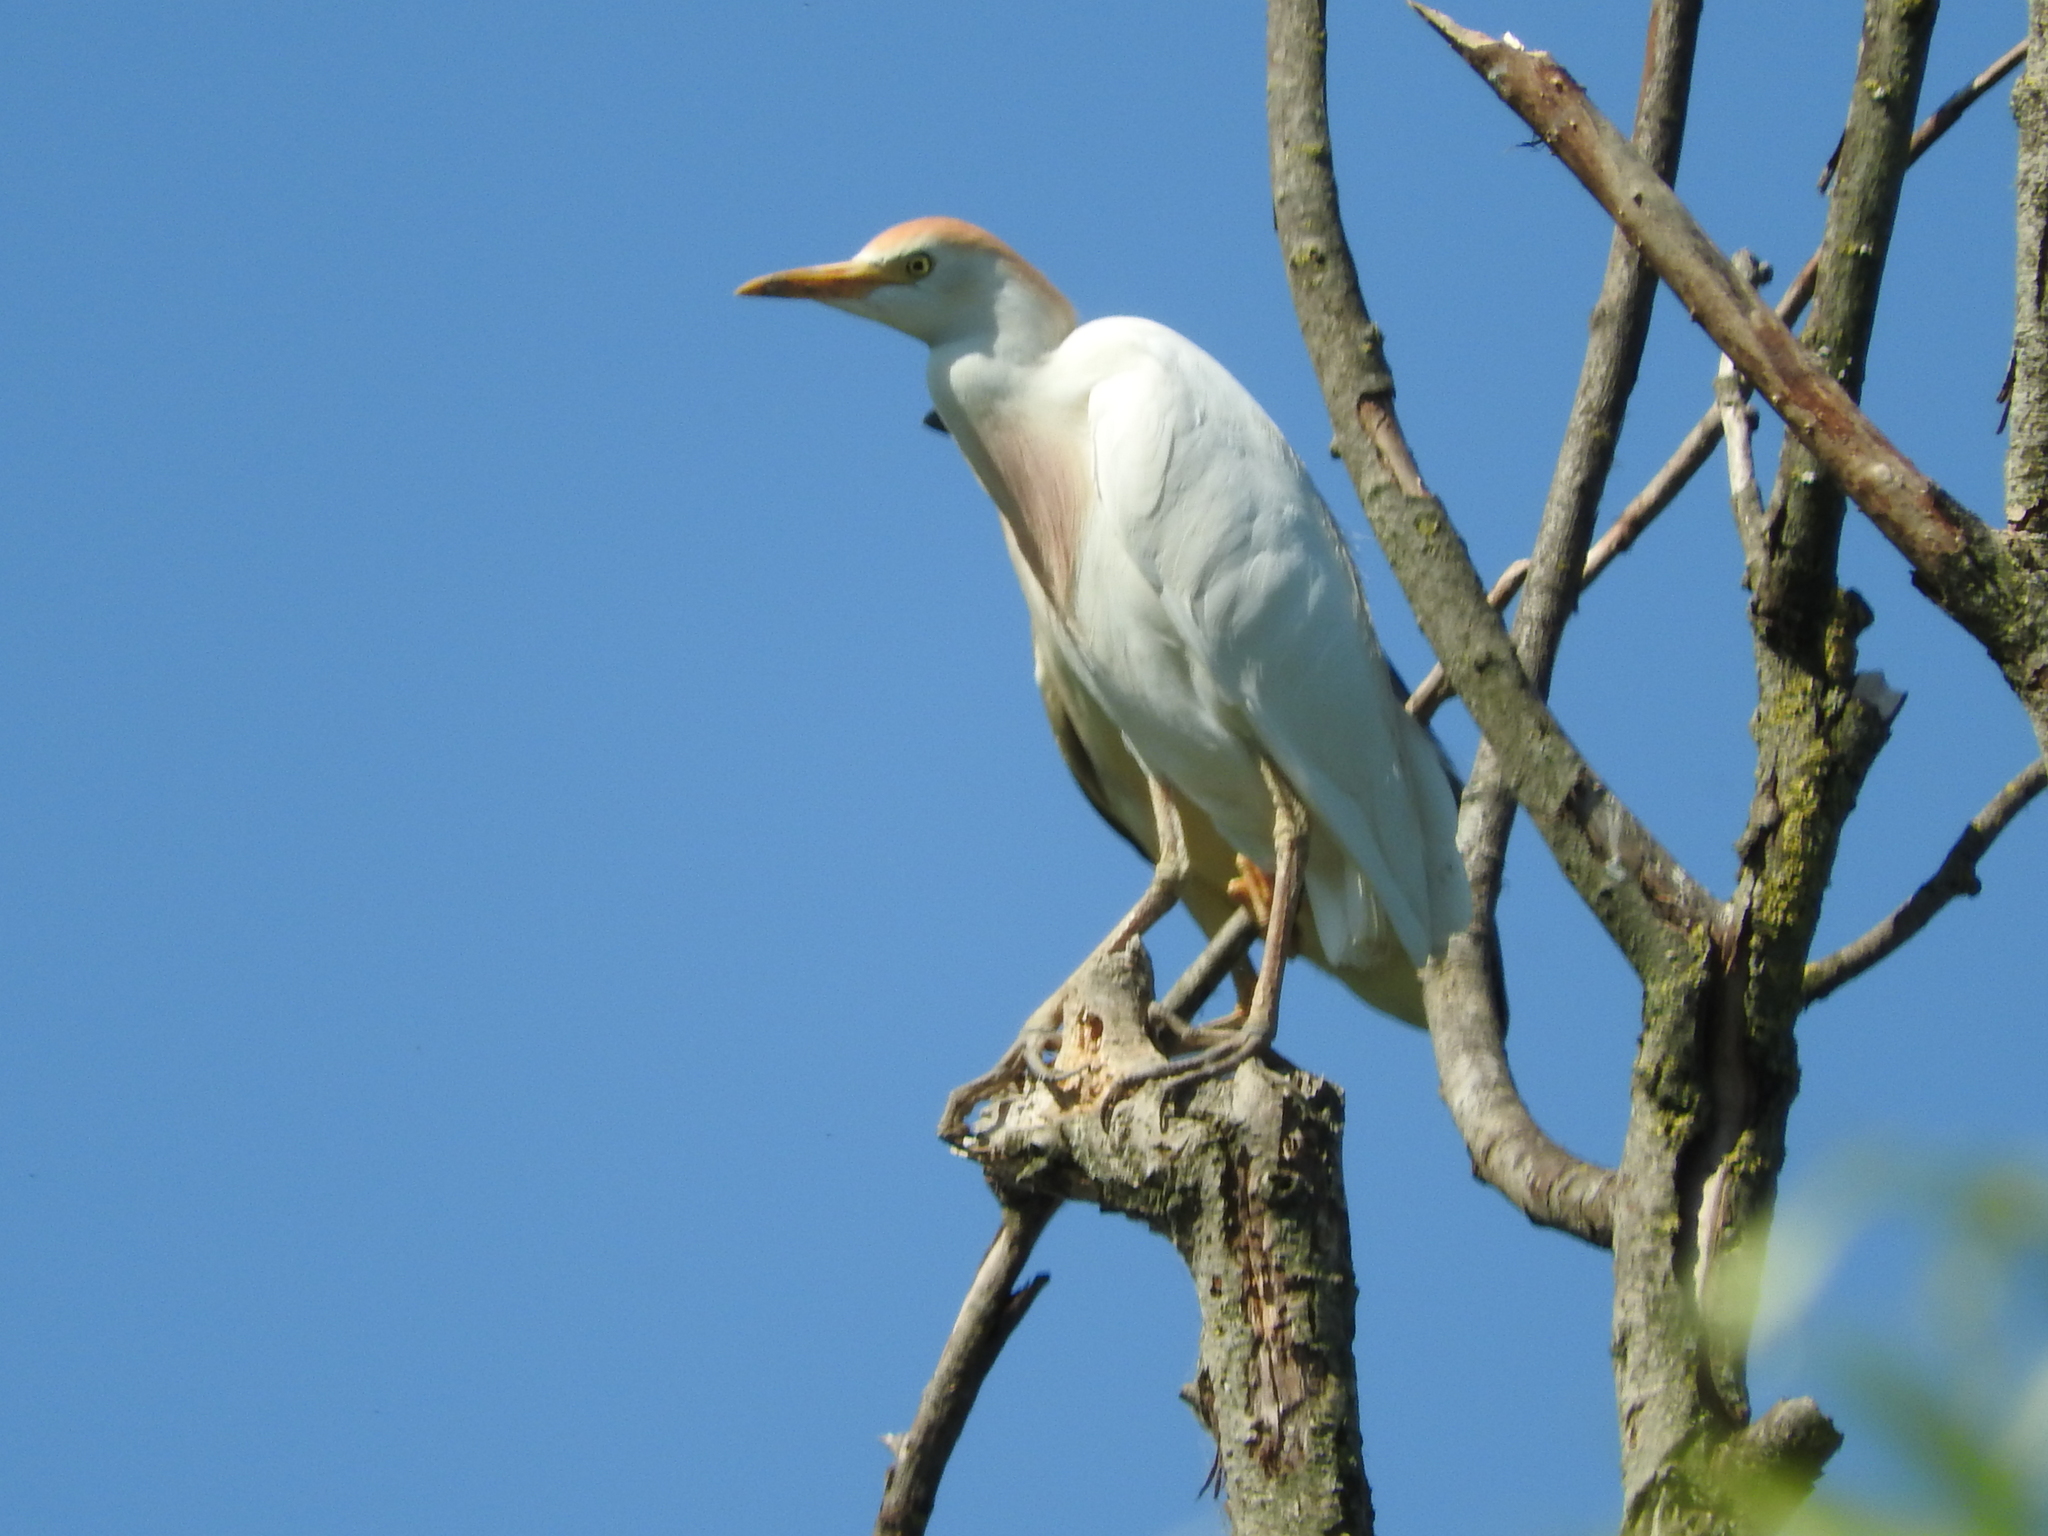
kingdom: Animalia
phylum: Chordata
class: Aves
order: Pelecaniformes
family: Ardeidae
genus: Bubulcus
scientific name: Bubulcus ibis
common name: Cattle egret
